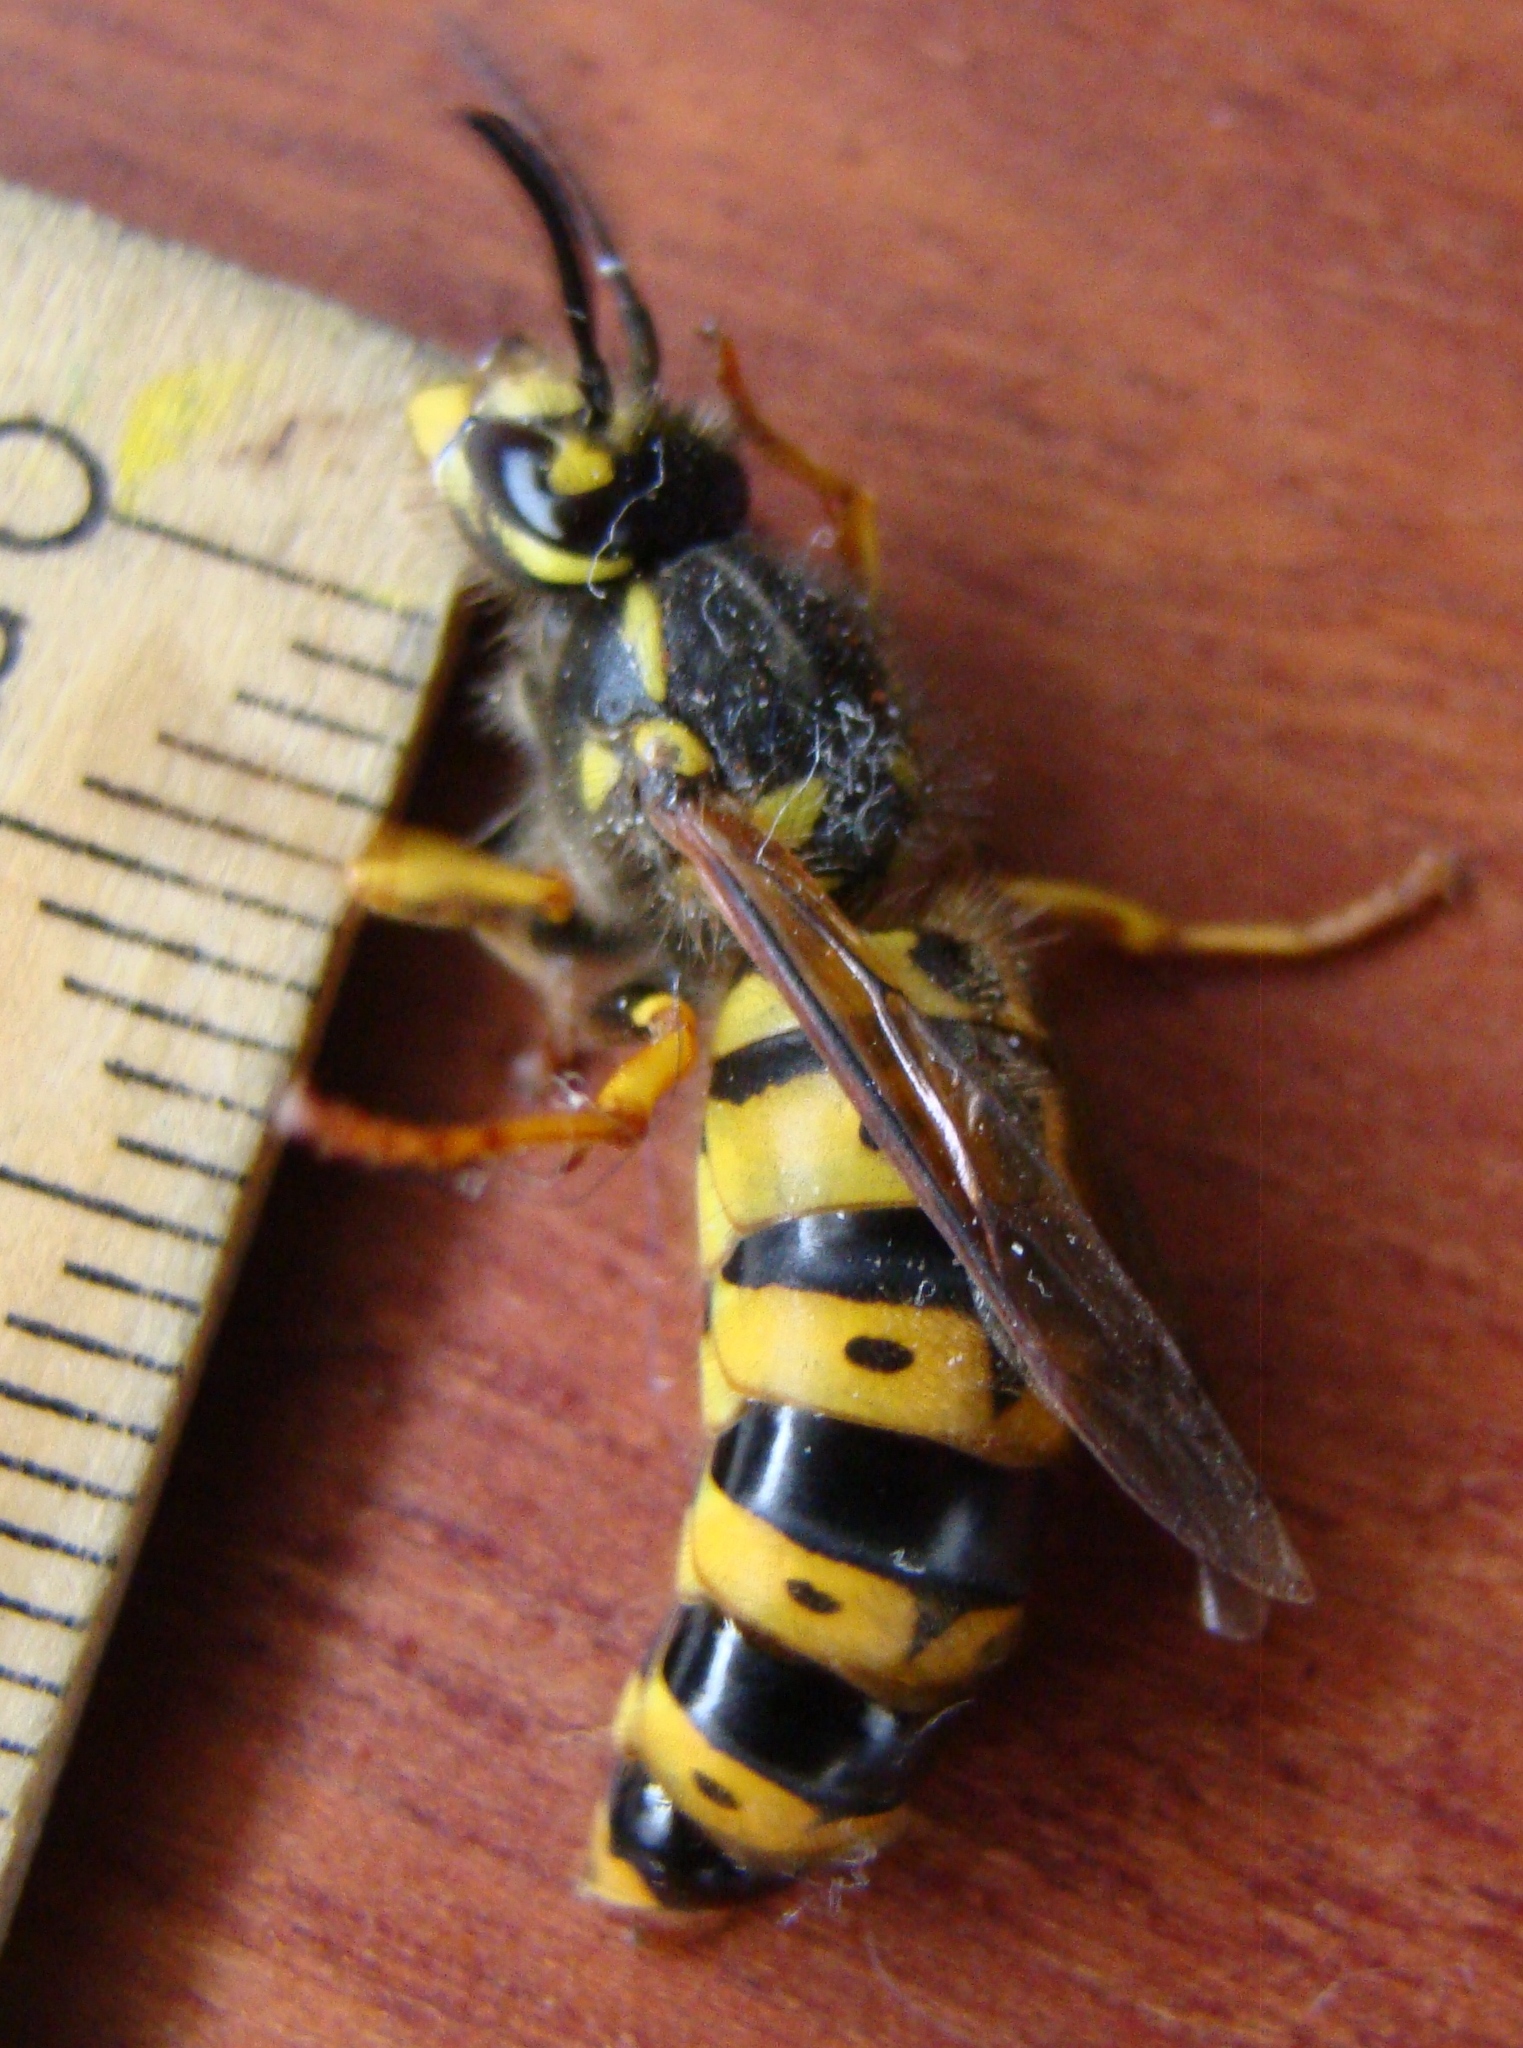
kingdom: Animalia
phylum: Arthropoda
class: Insecta
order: Hymenoptera
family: Vespidae
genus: Vespula
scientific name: Vespula germanica
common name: German wasp
